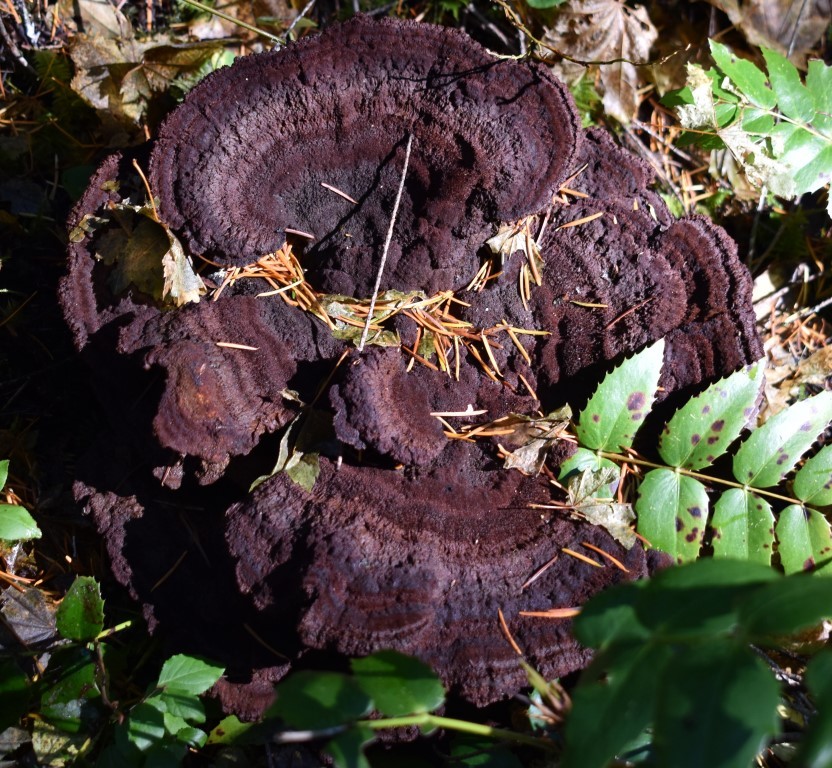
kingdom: Fungi
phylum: Basidiomycota
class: Agaricomycetes
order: Polyporales
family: Laetiporaceae
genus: Phaeolus
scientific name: Phaeolus schweinitzii
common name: Dyer's mazegill
